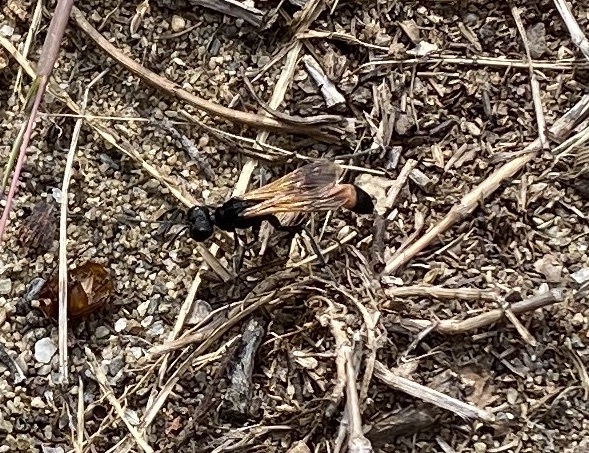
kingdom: Animalia
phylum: Arthropoda
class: Insecta
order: Hymenoptera
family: Sphecidae
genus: Ammophila
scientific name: Ammophila pictipennis
